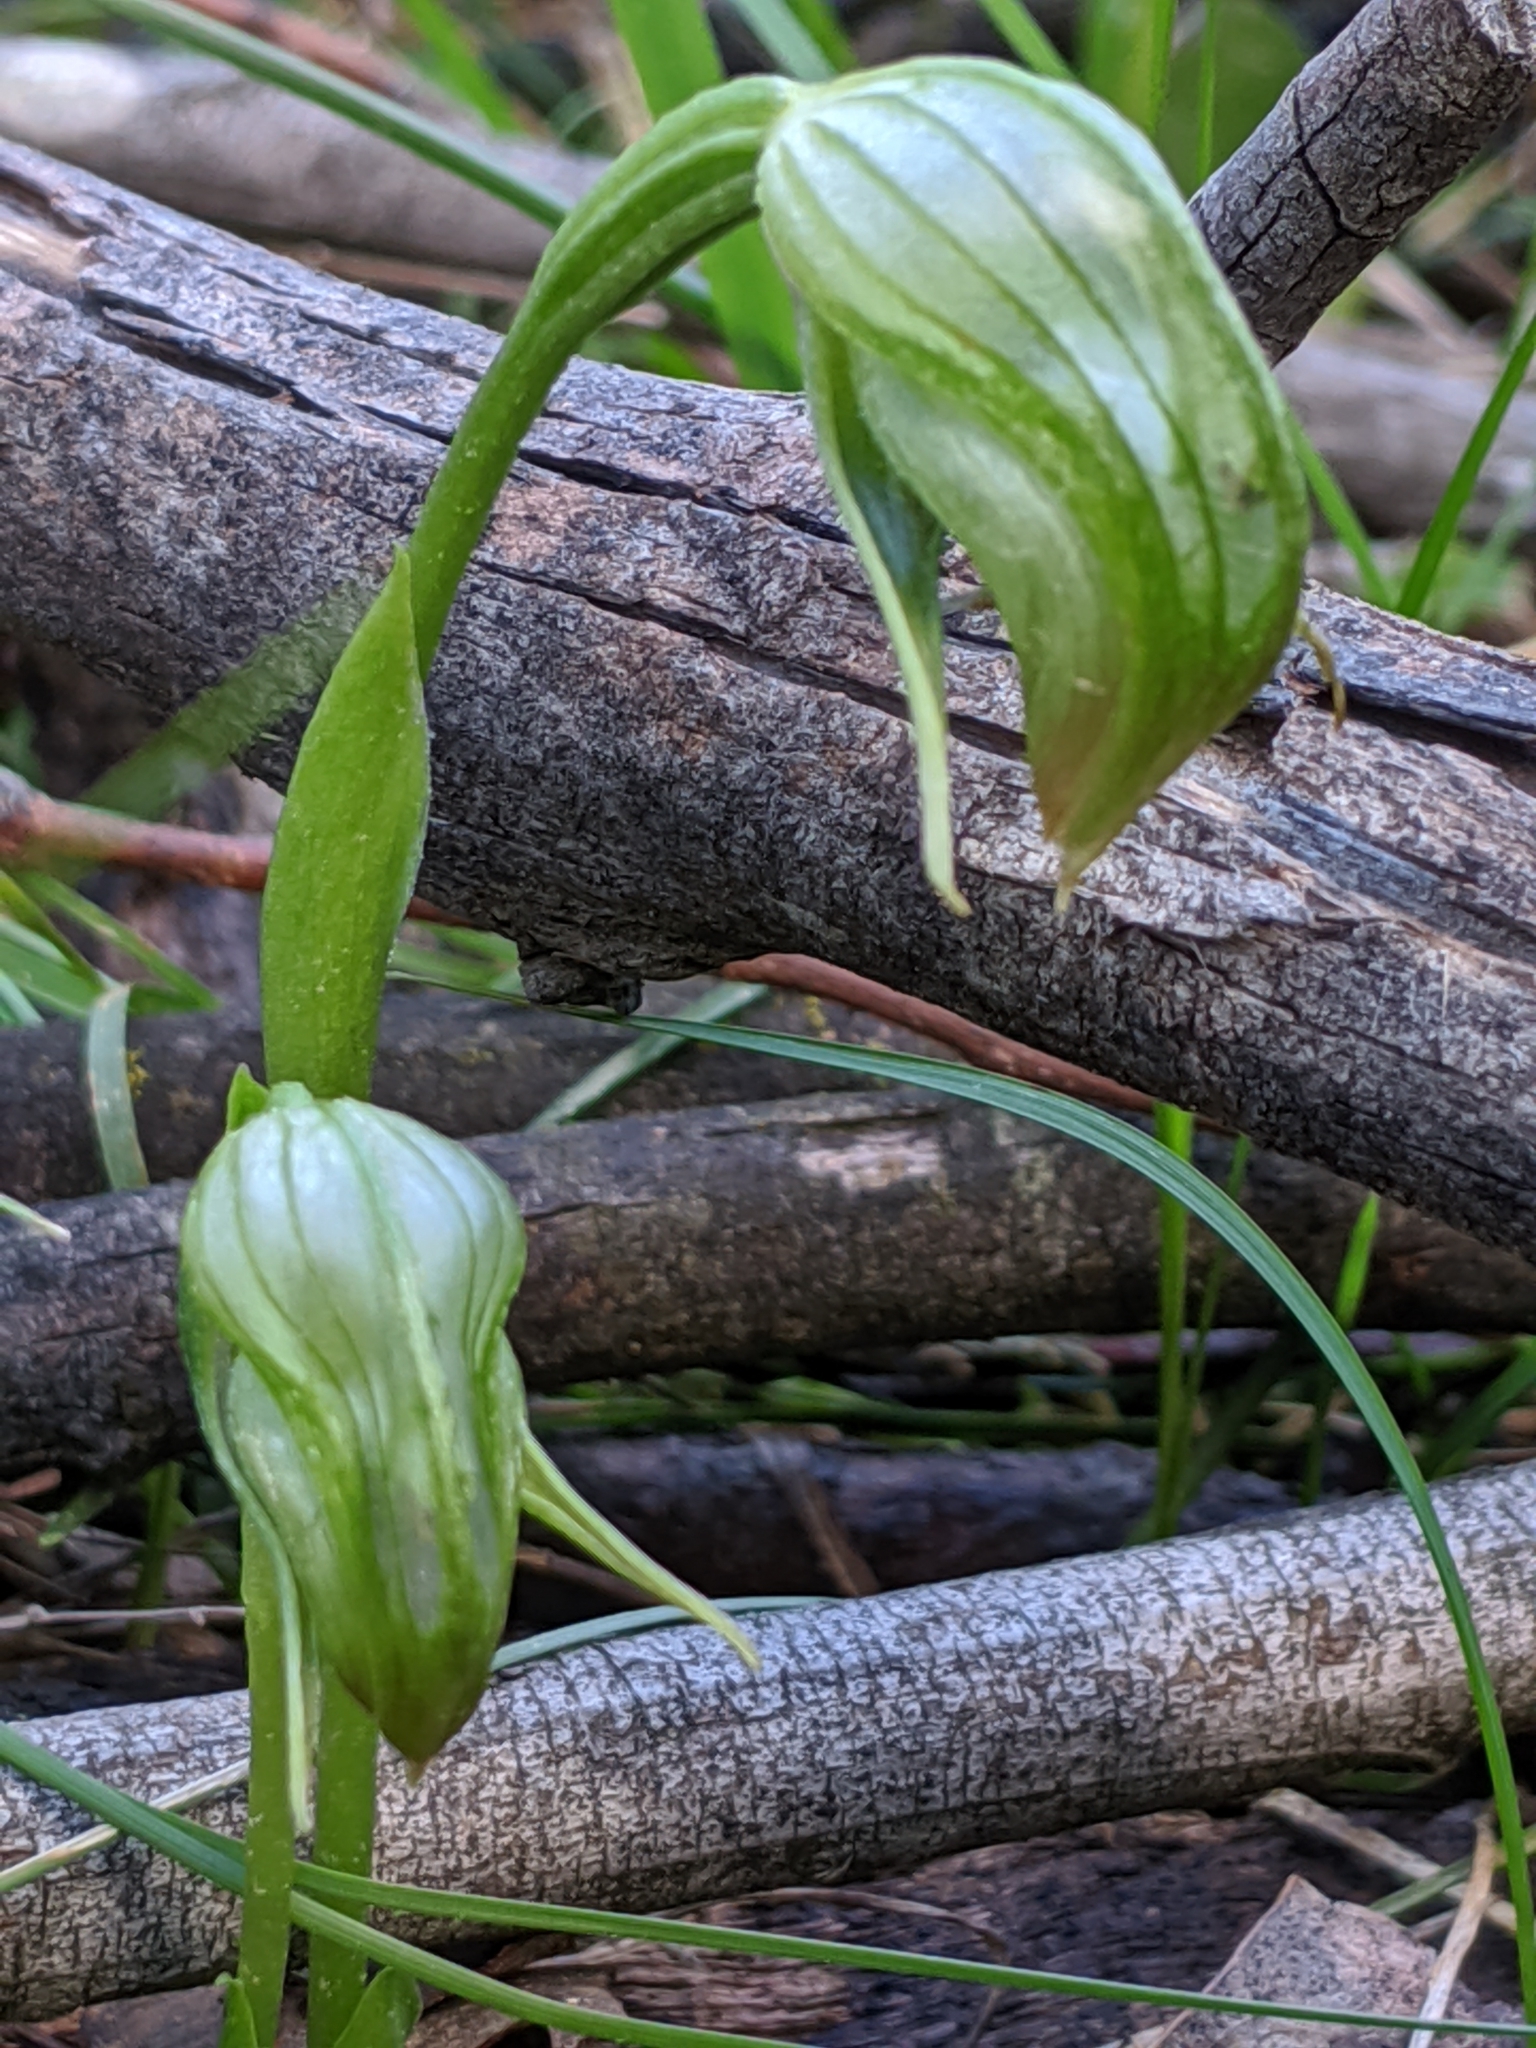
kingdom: Plantae
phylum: Tracheophyta
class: Liliopsida
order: Asparagales
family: Orchidaceae
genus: Pterostylis
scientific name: Pterostylis nutans
